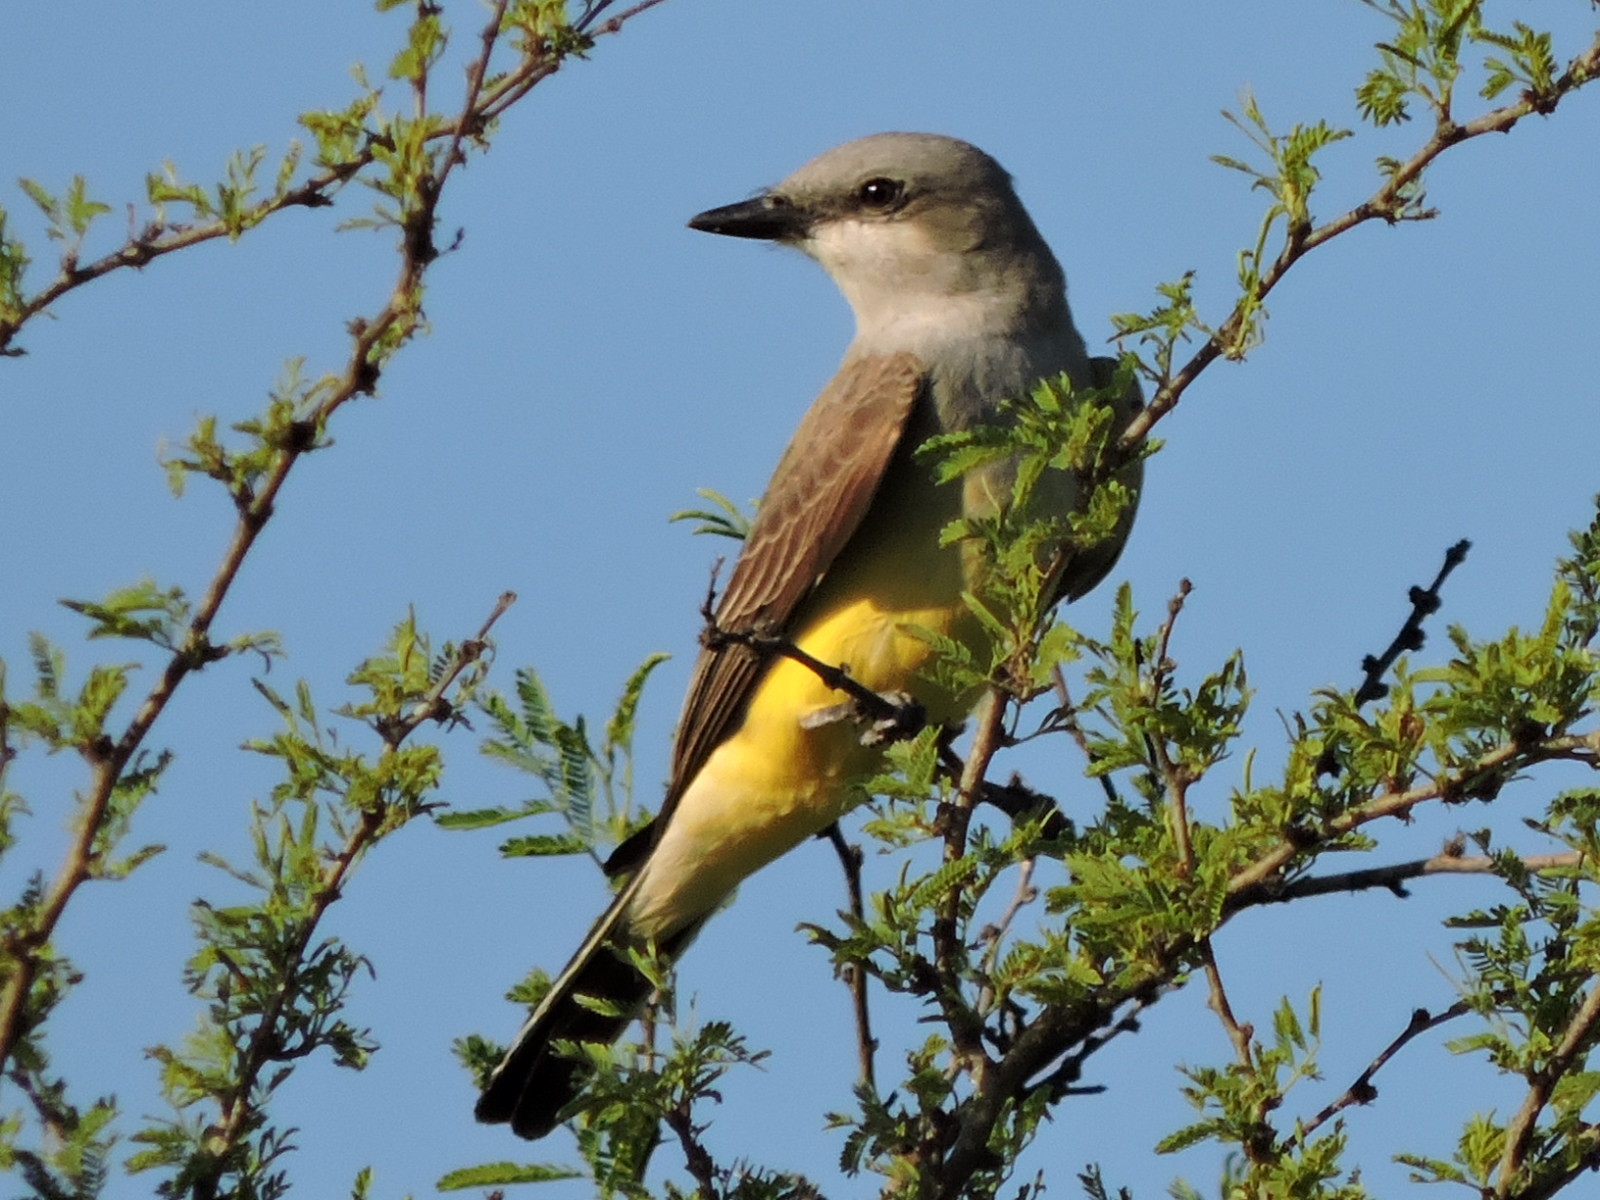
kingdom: Animalia
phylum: Chordata
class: Aves
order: Passeriformes
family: Tyrannidae
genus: Tyrannus
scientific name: Tyrannus verticalis
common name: Western kingbird
